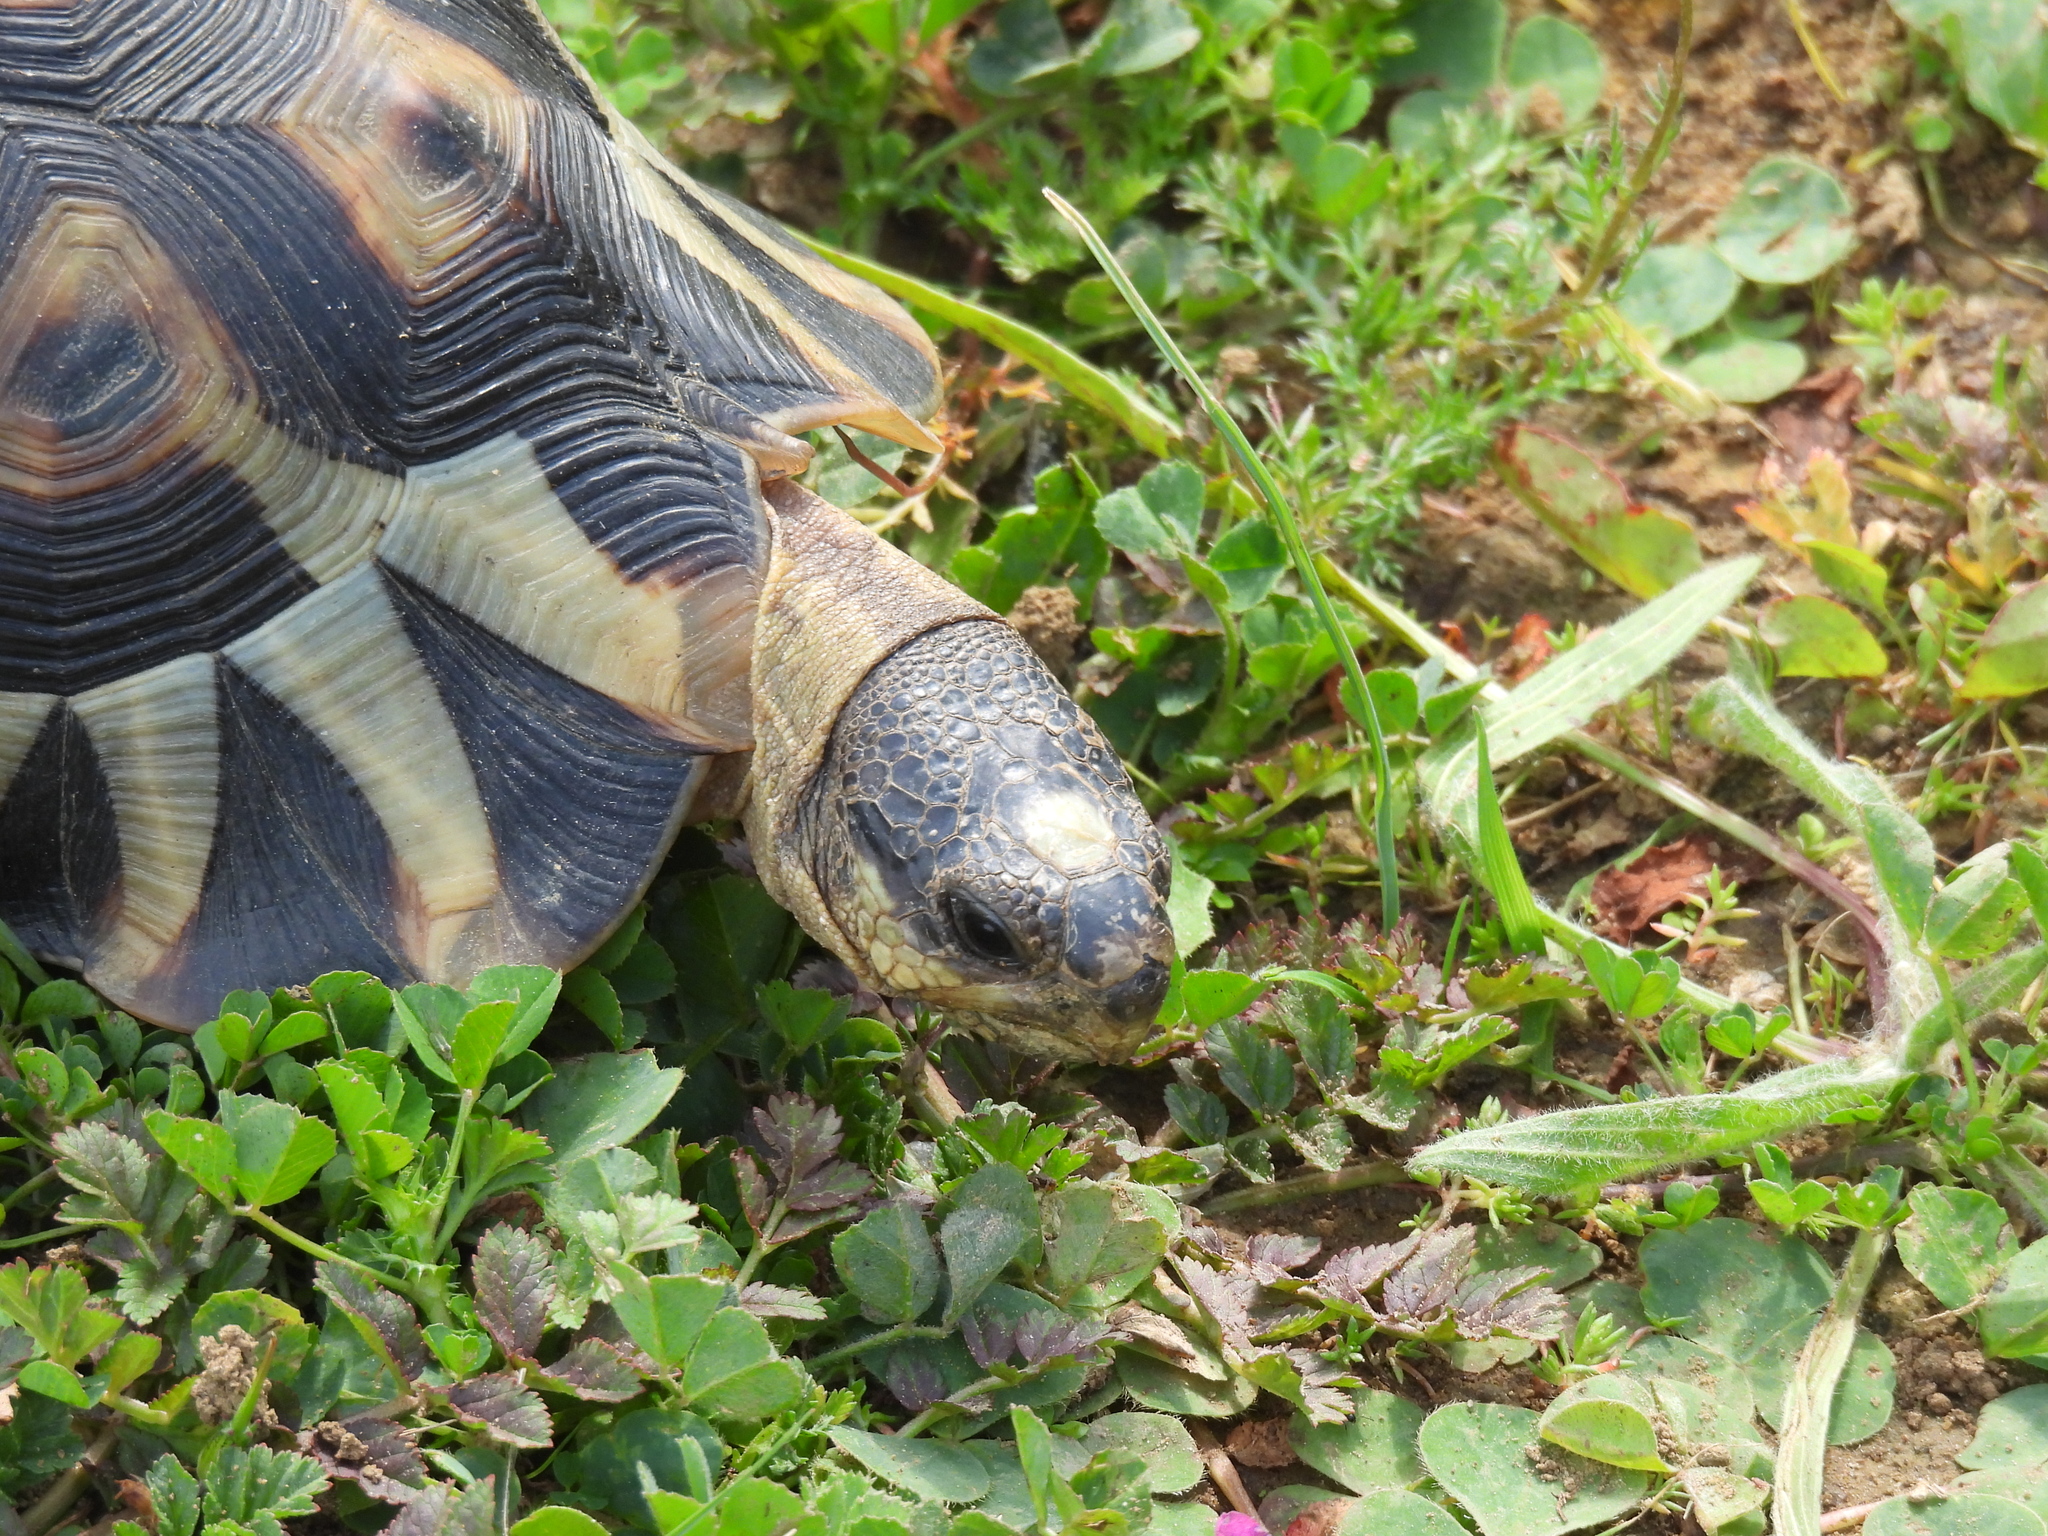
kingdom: Animalia
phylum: Chordata
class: Testudines
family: Testudinidae
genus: Chersina
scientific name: Chersina angulata
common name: South african bowsprit tortoise
